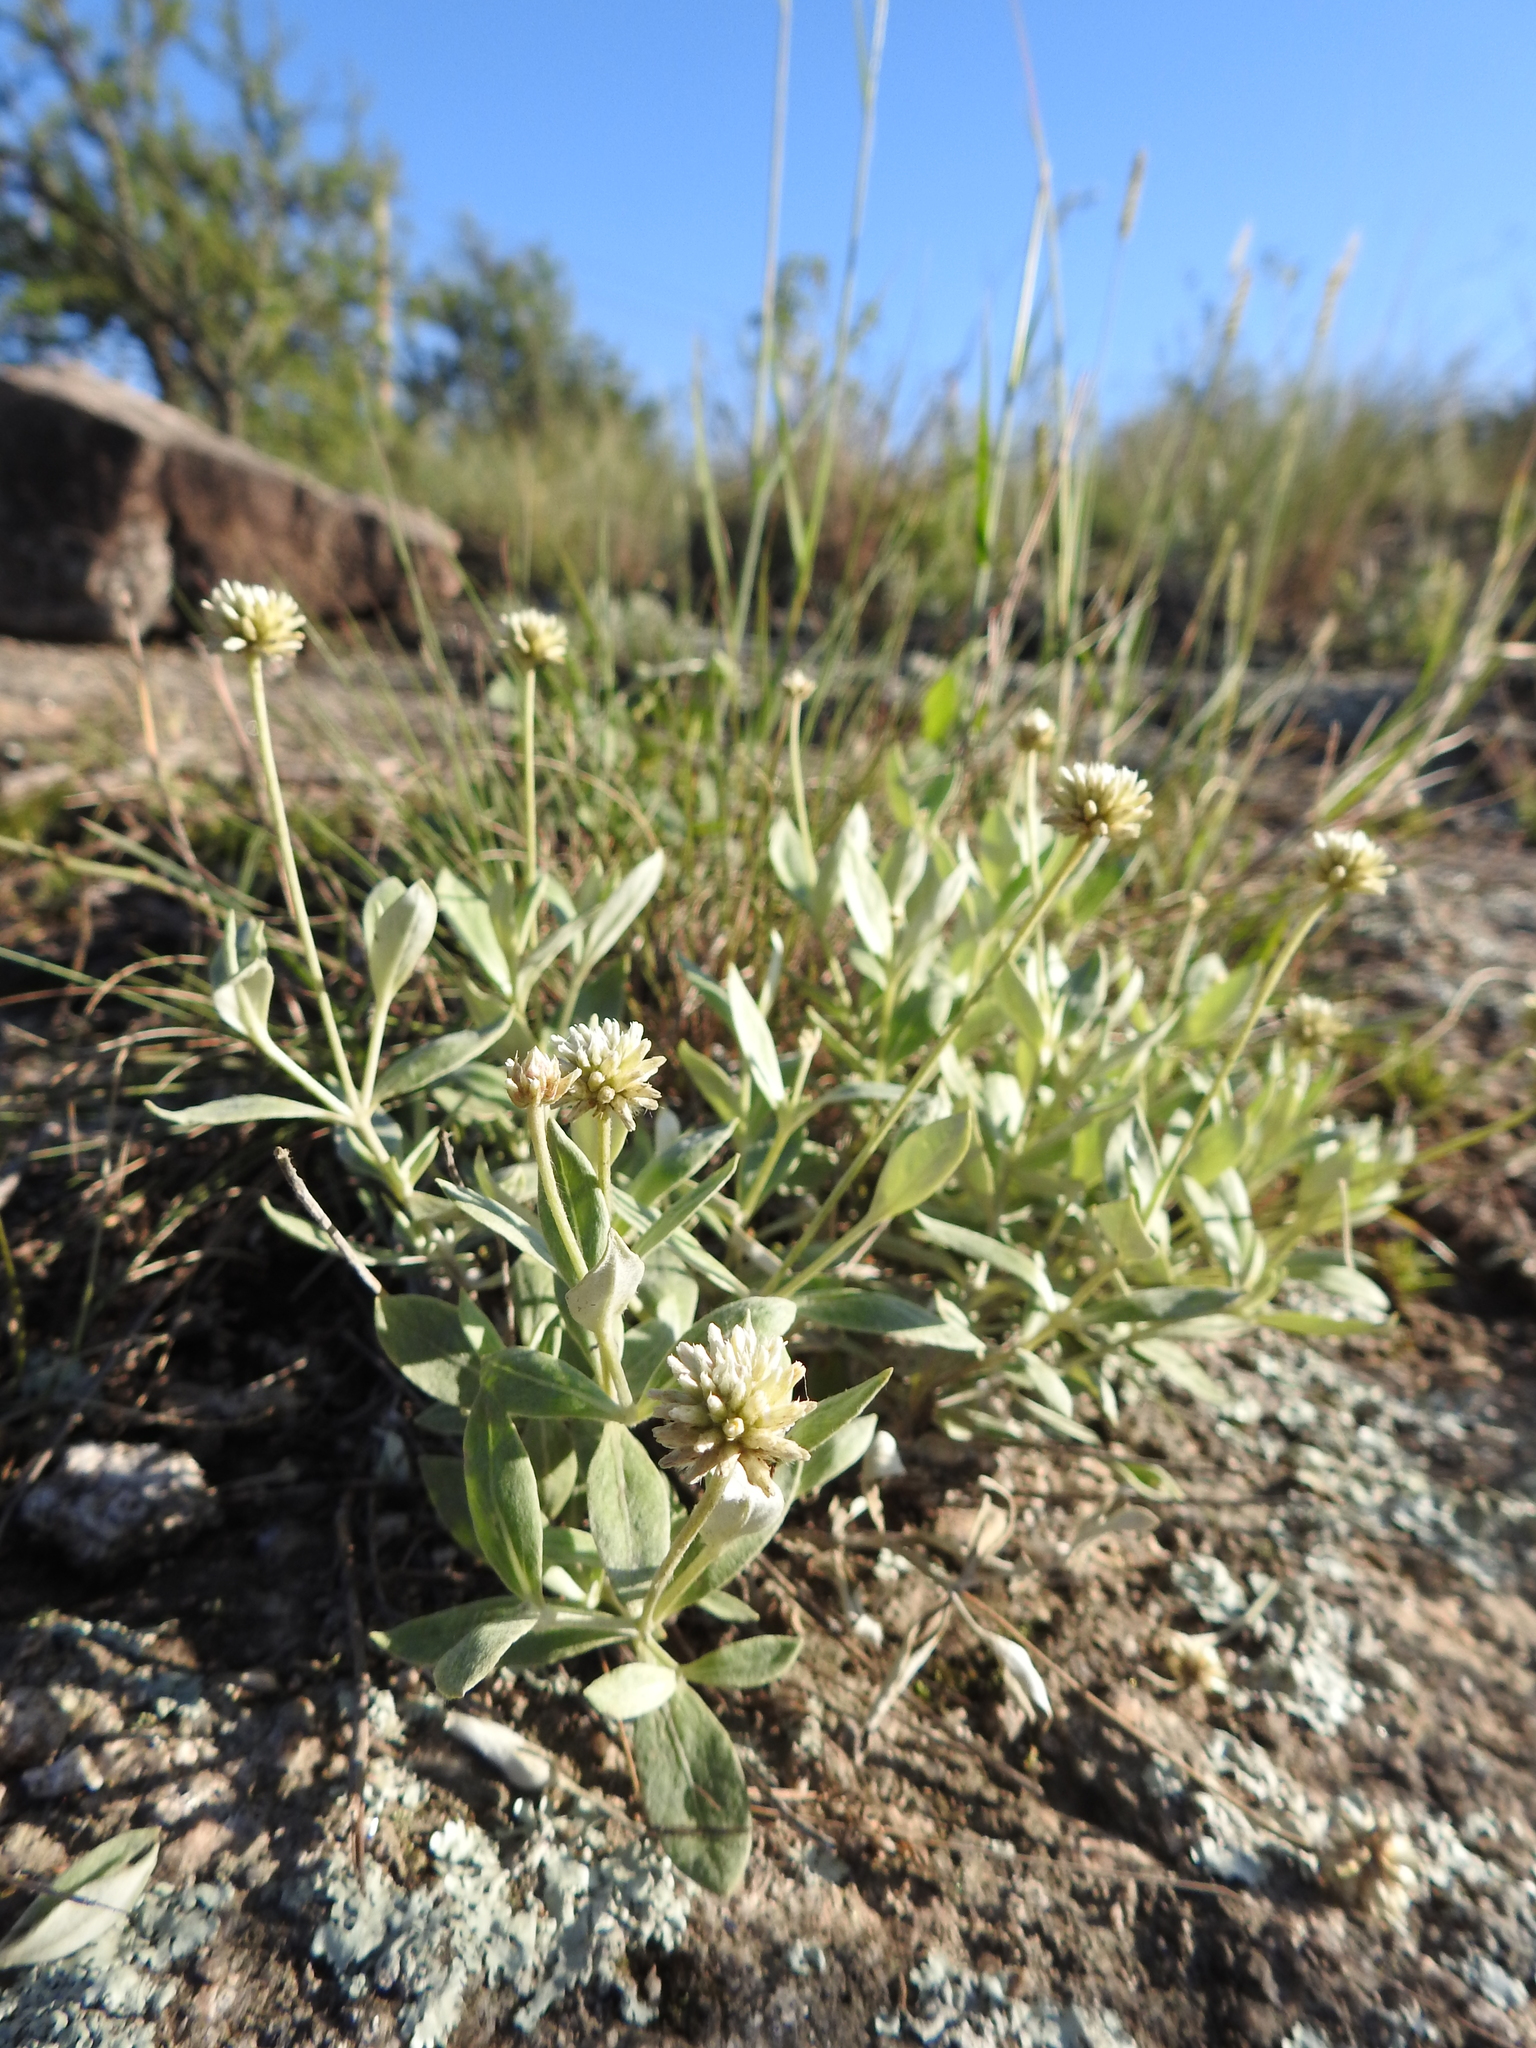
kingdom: Plantae
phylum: Tracheophyta
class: Magnoliopsida
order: Caryophyllales
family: Amaranthaceae
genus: Pfaffia
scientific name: Pfaffia gnaphalioides
